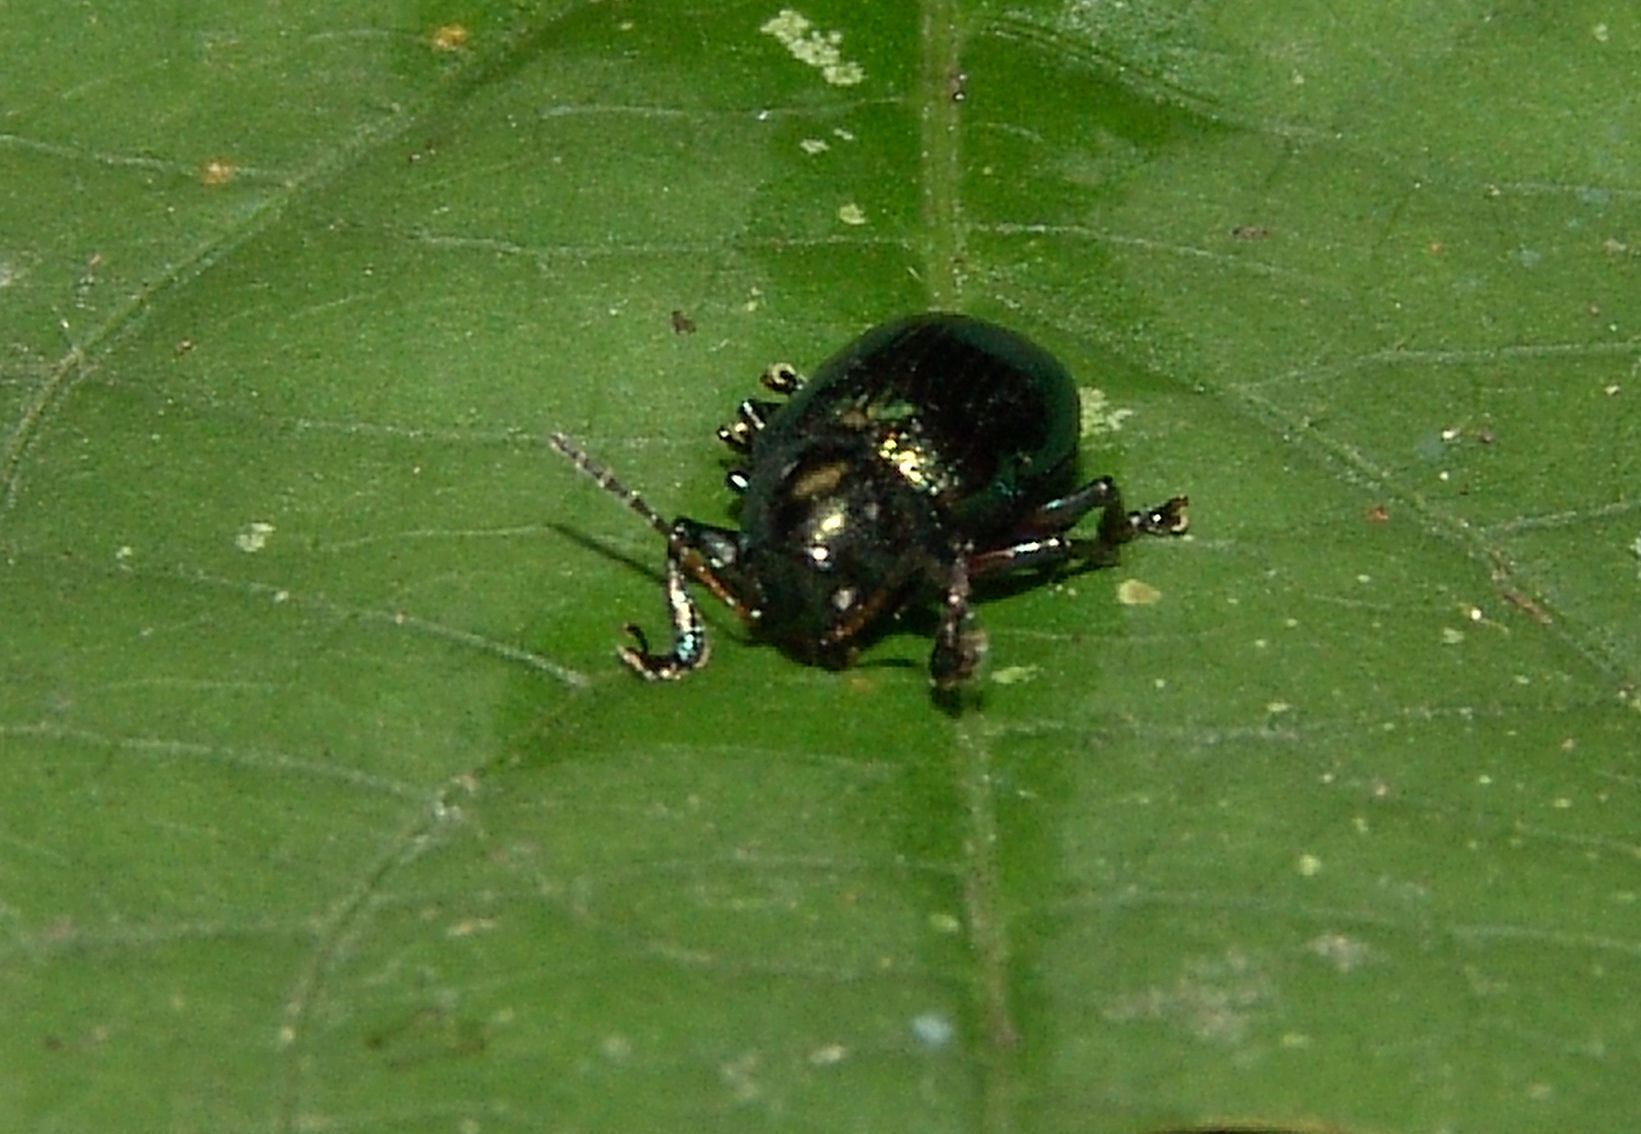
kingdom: Animalia
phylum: Arthropoda
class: Insecta
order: Coleoptera
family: Chrysomelidae
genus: Typophorus
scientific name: Typophorus nigritus
